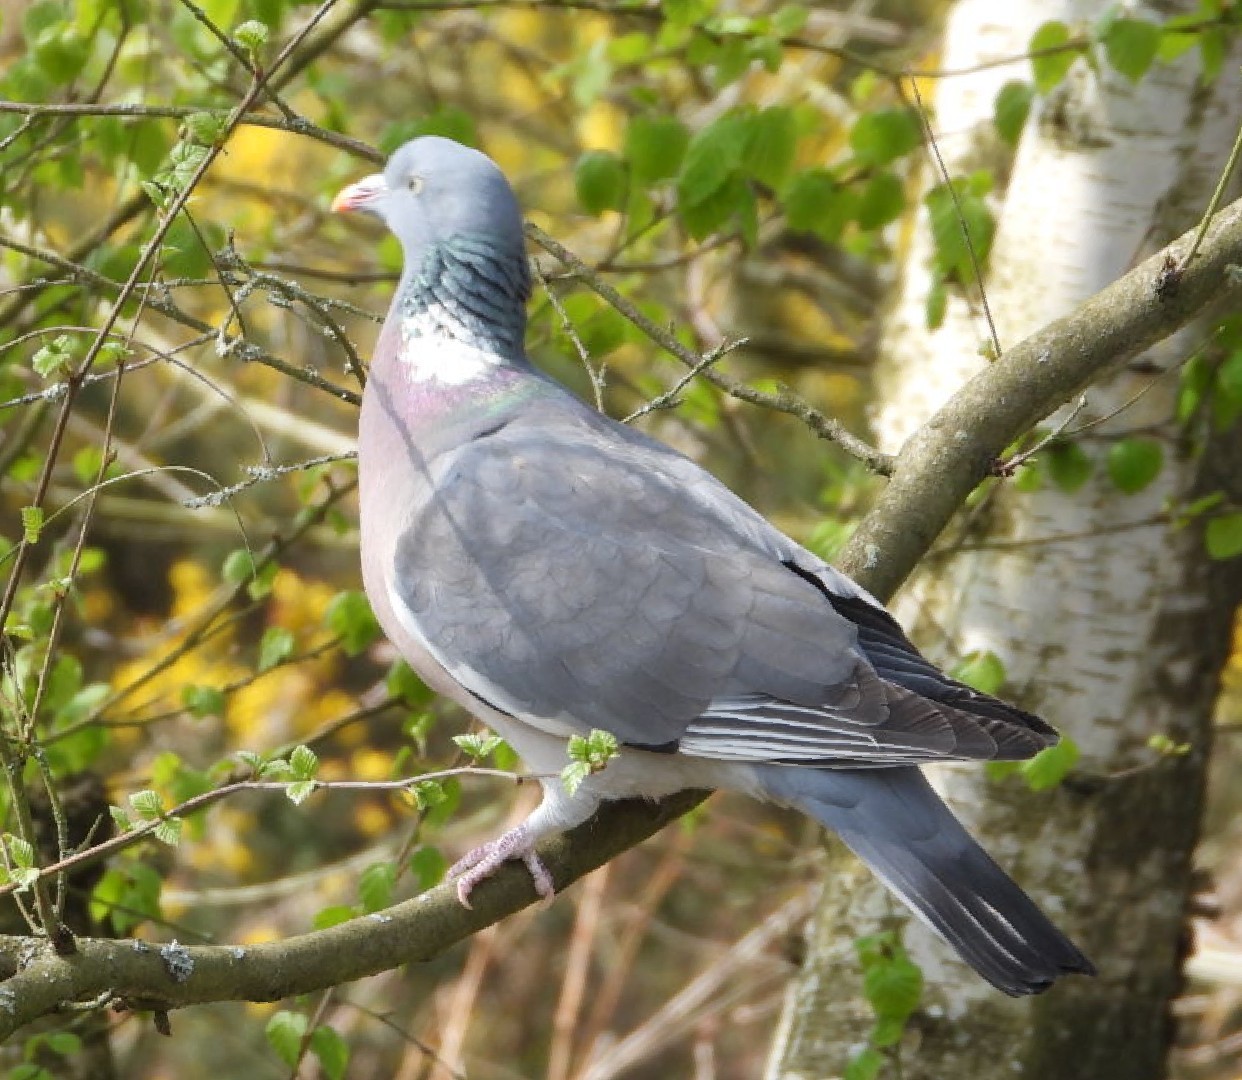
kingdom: Animalia
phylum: Chordata
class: Aves
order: Columbiformes
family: Columbidae
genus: Columba
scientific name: Columba palumbus
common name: Common wood pigeon
